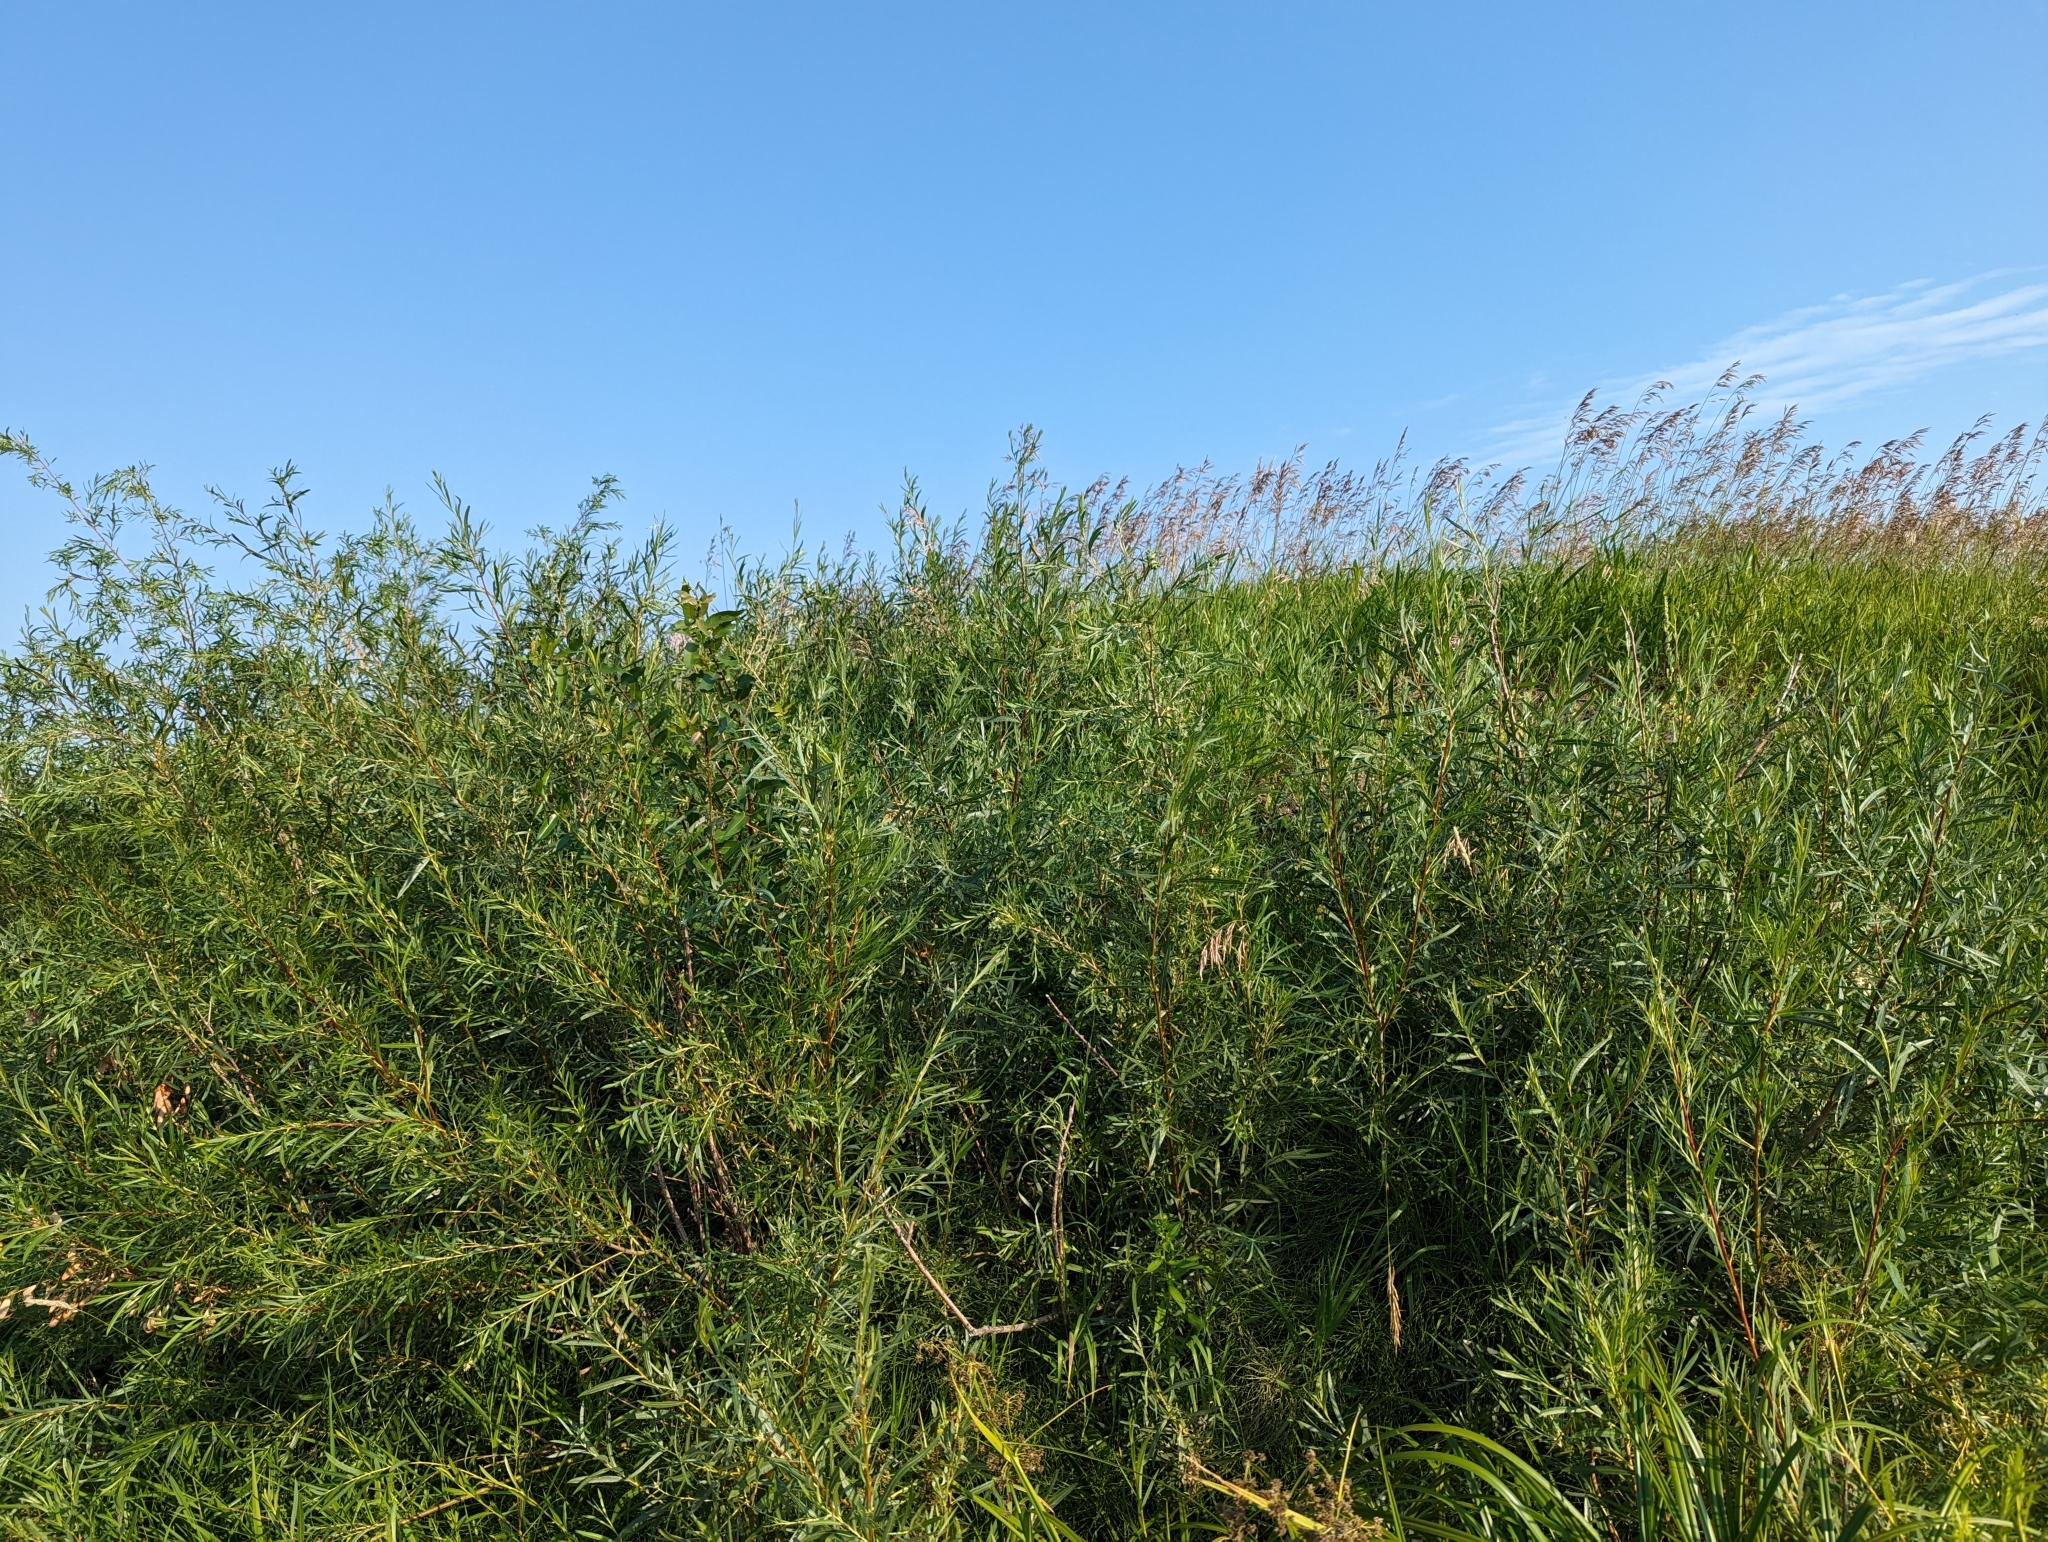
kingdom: Plantae
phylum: Tracheophyta
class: Magnoliopsida
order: Malpighiales
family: Salicaceae
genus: Salix
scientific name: Salix interior
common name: Sandbar willow
